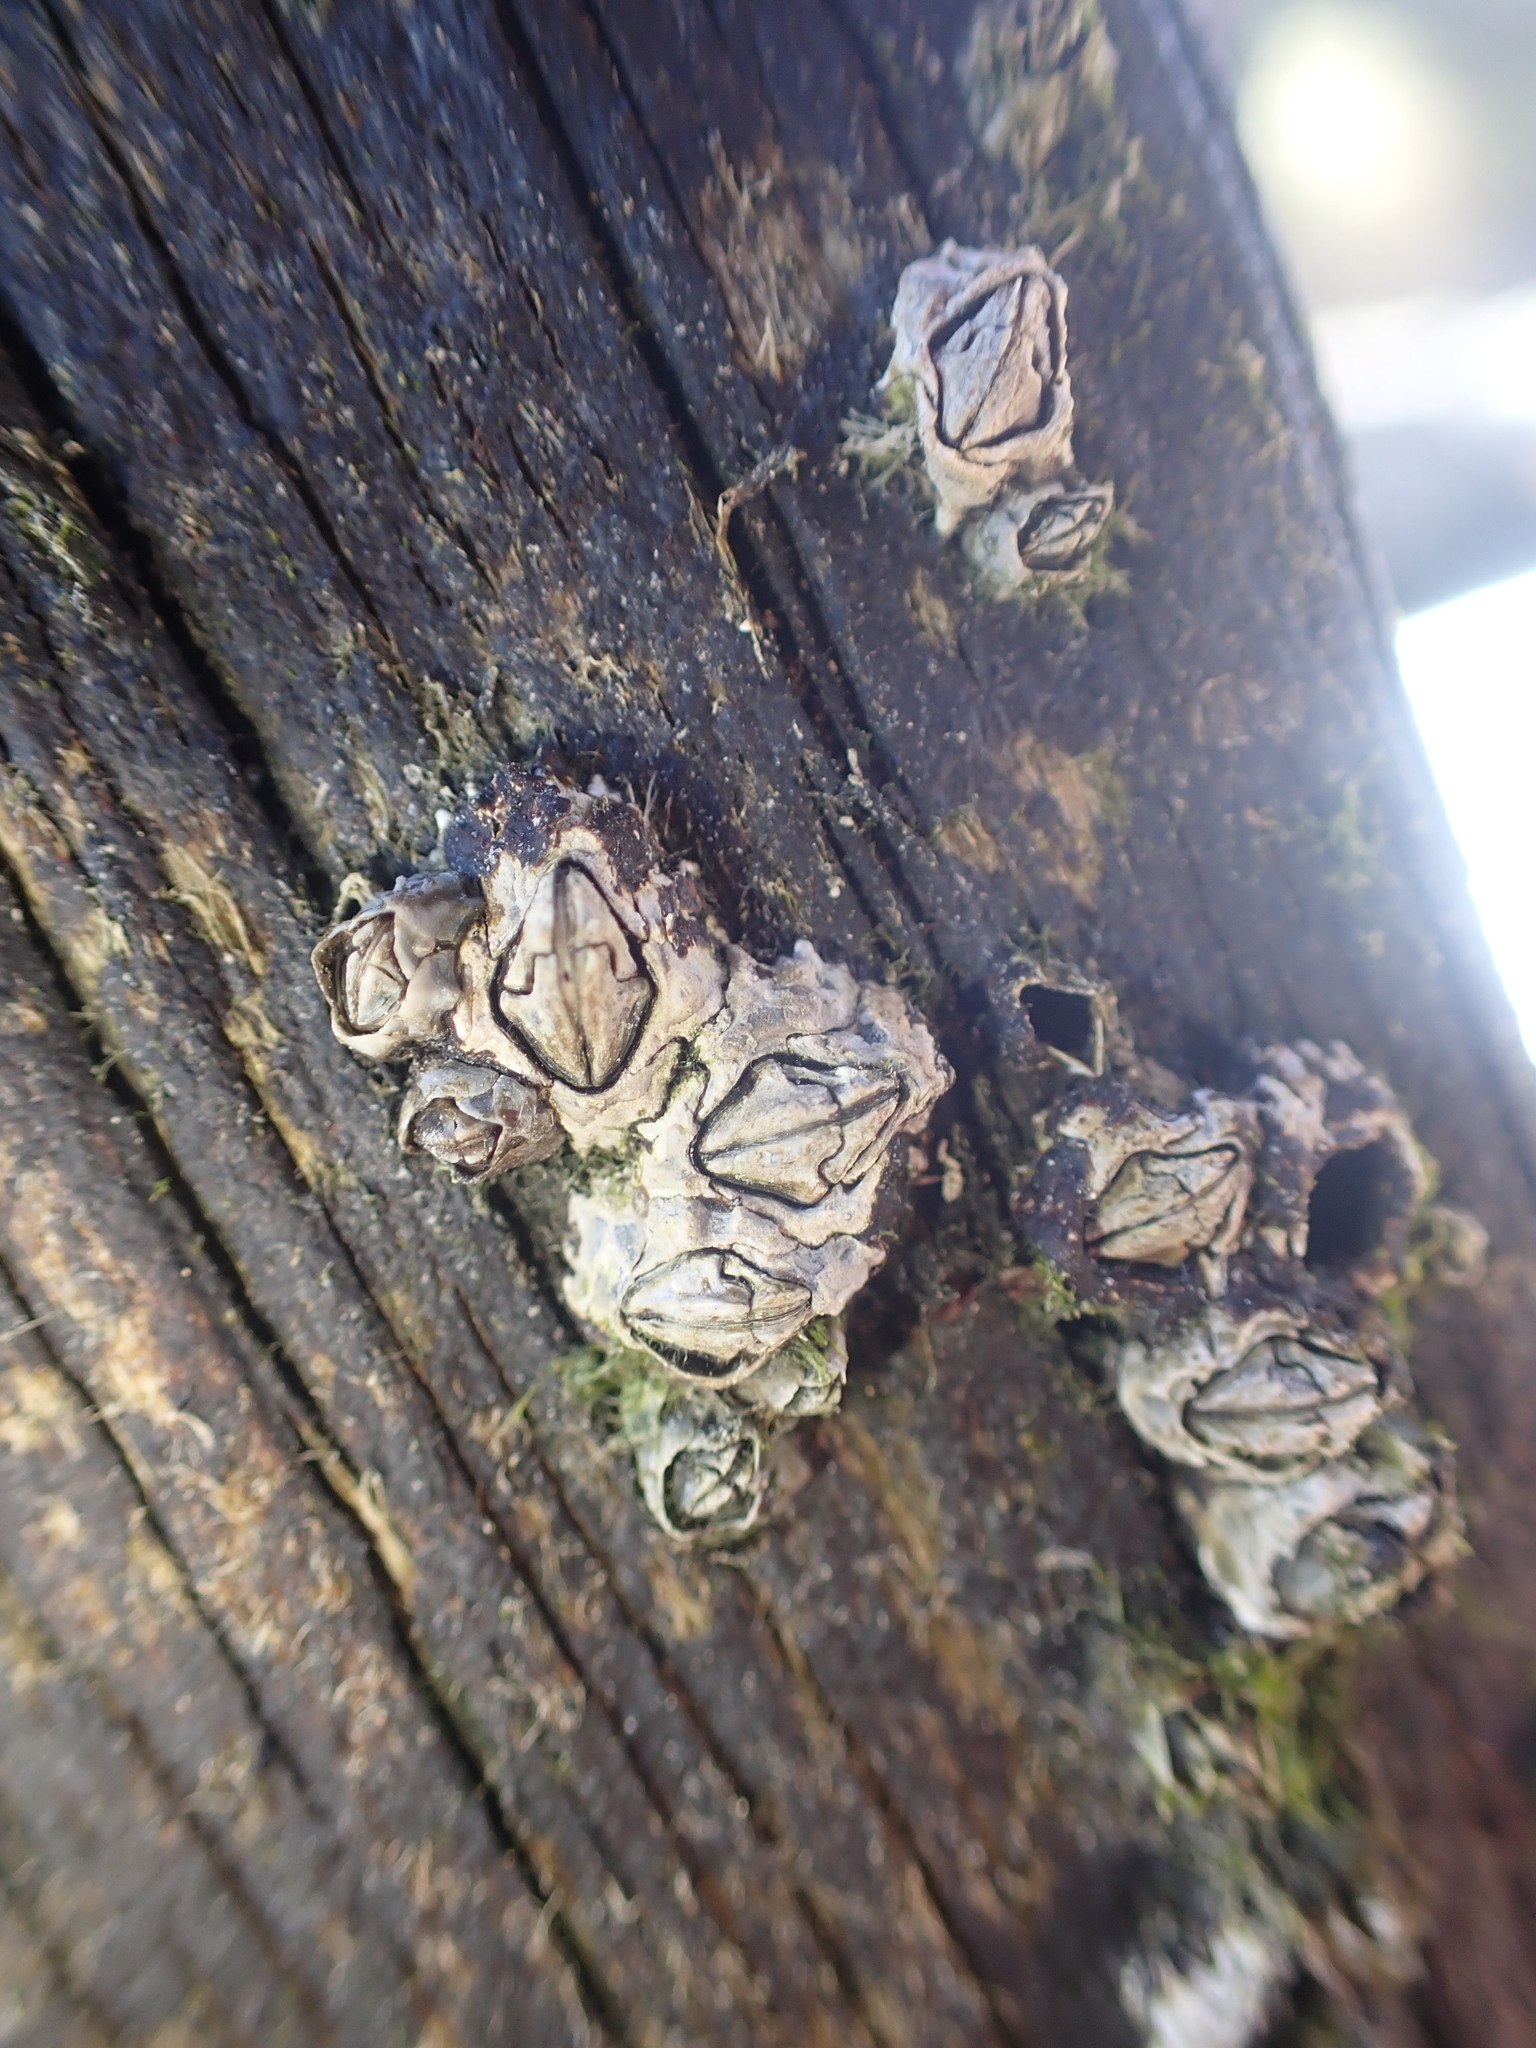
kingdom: Animalia
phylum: Arthropoda
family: Elminiidae
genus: Austrominius
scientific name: Austrominius modestus
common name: Australasian barnacle
